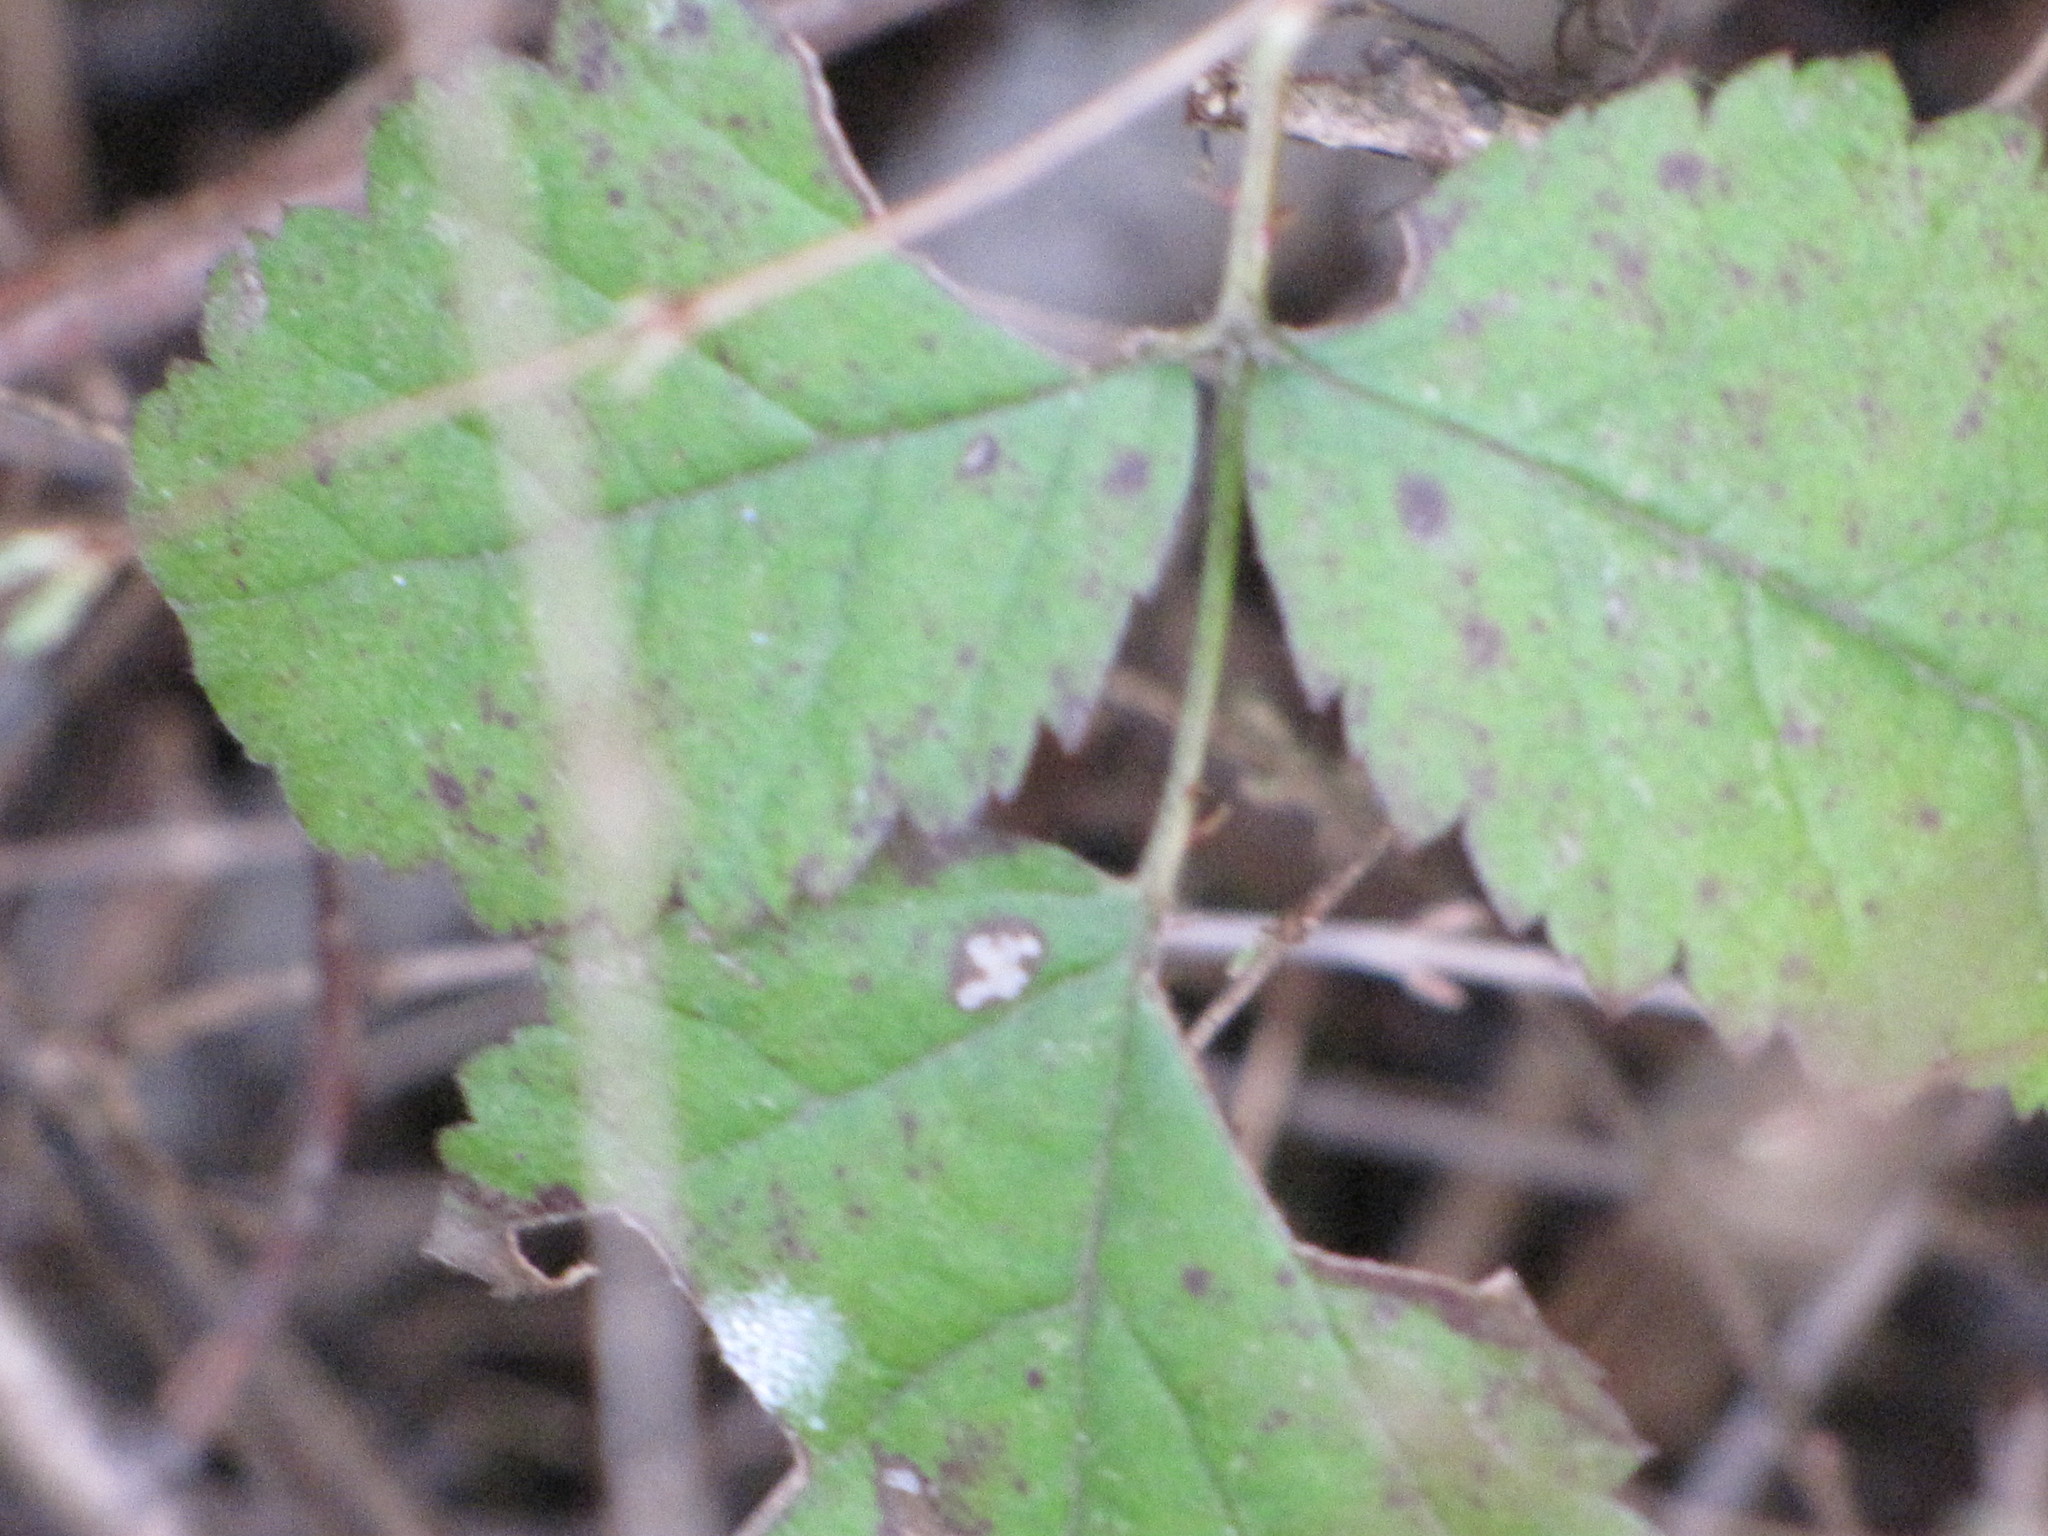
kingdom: Plantae
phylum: Tracheophyta
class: Magnoliopsida
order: Rosales
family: Rosaceae
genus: Rubus
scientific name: Rubus armeniacus
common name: Himalayan blackberry
